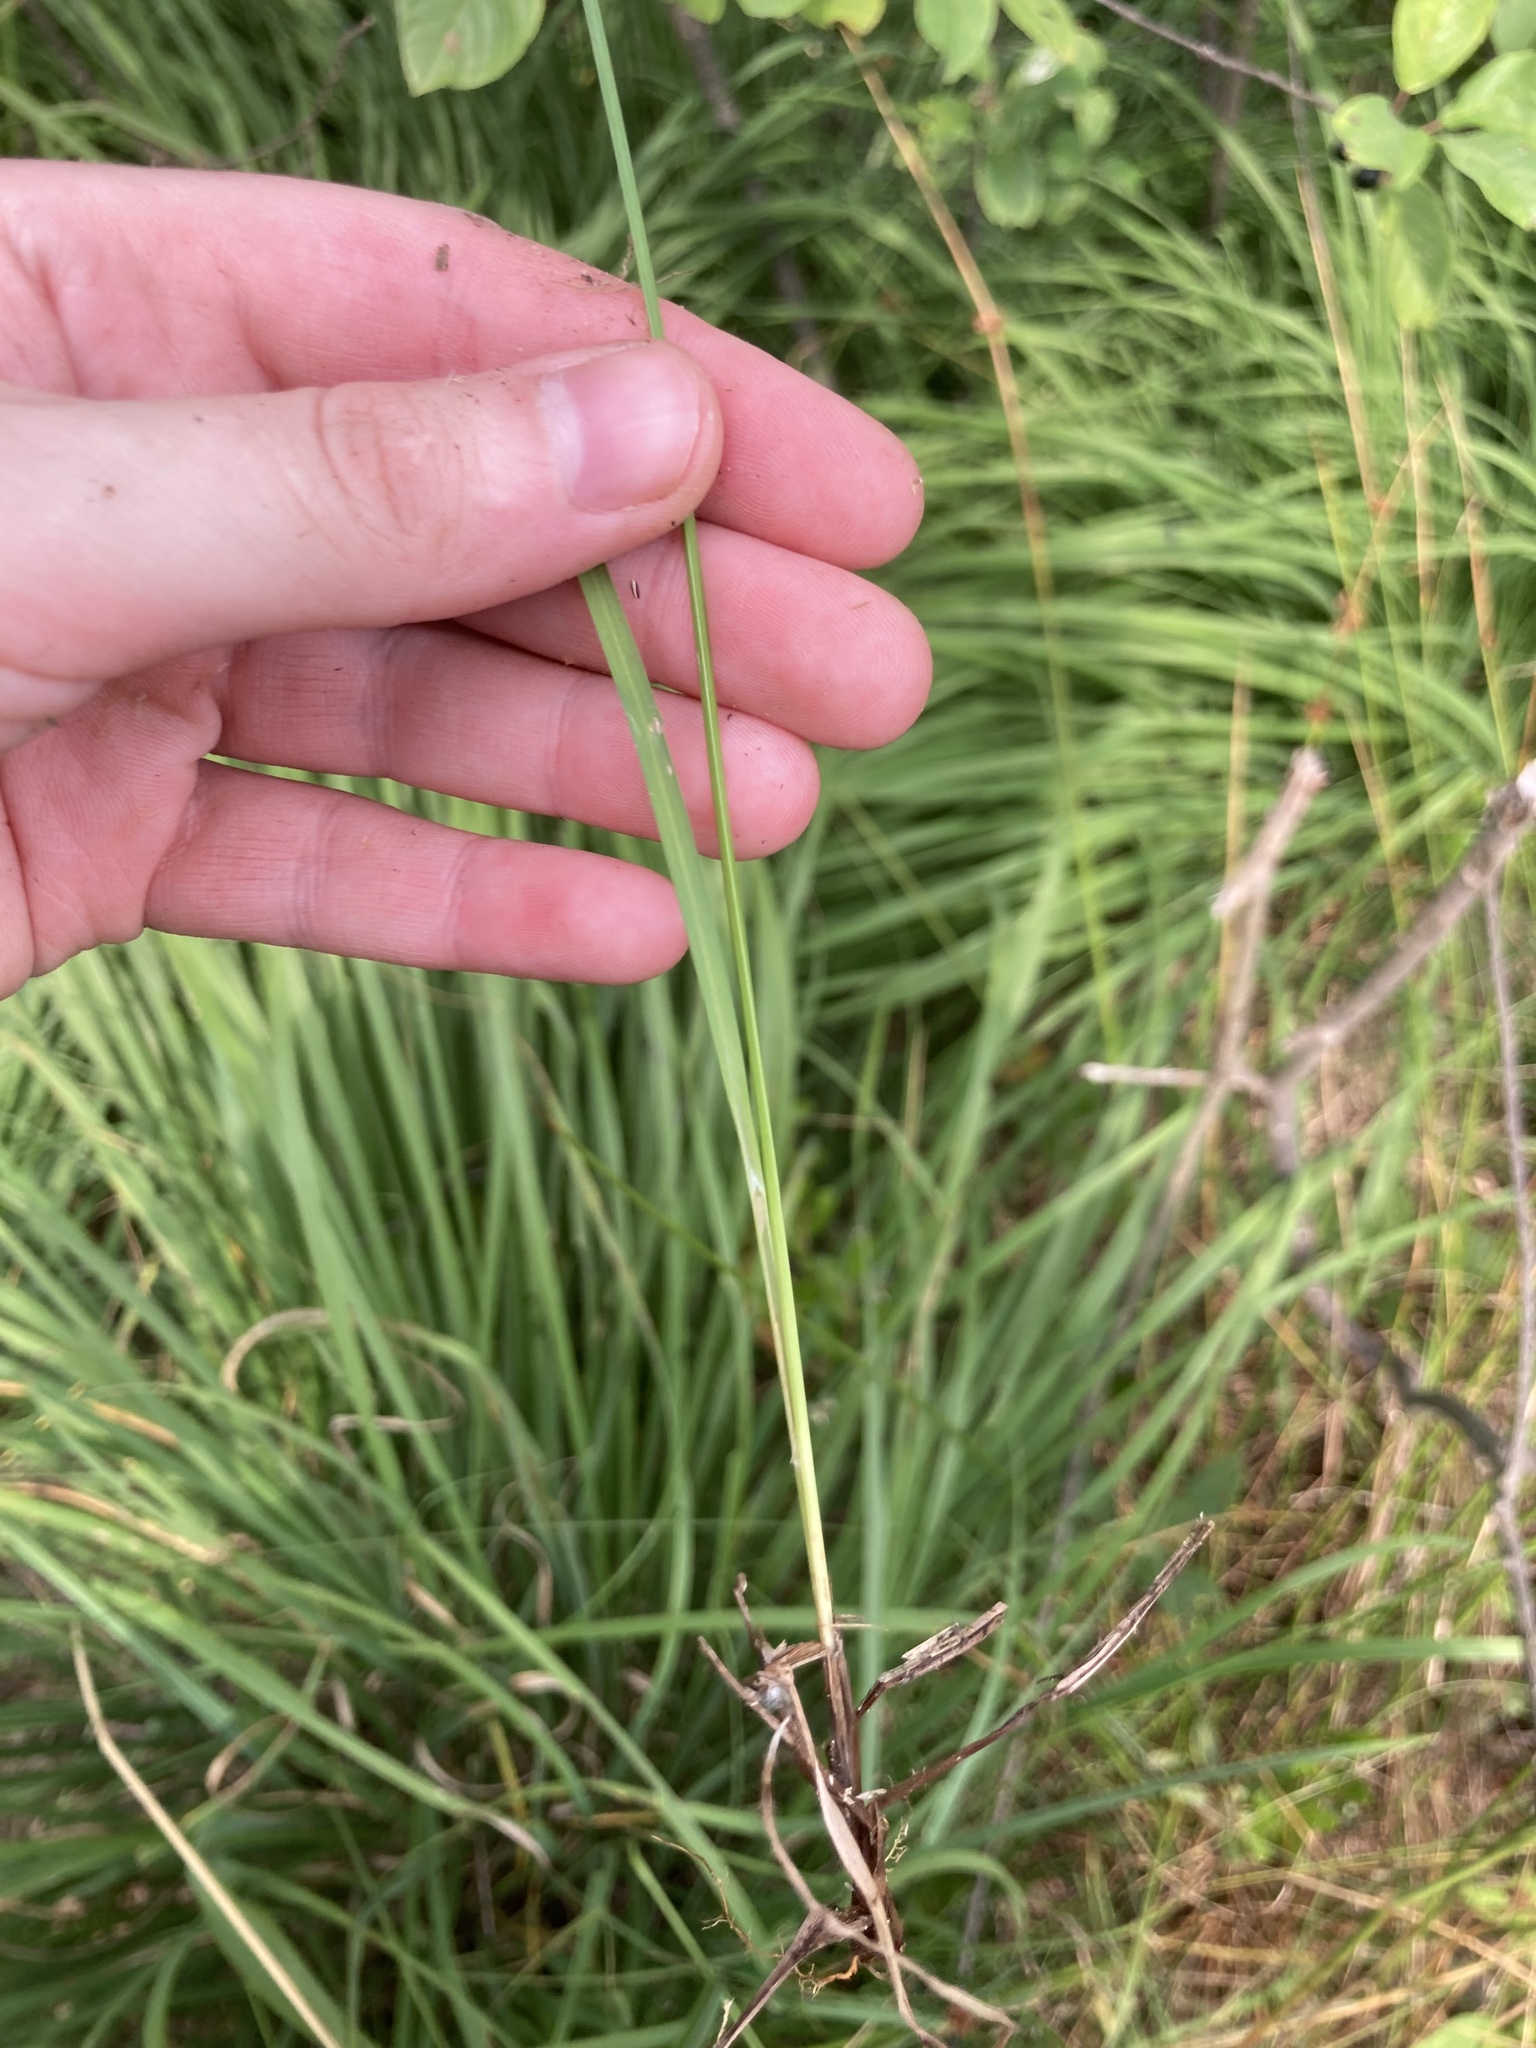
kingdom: Plantae
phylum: Tracheophyta
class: Liliopsida
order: Poales
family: Cyperaceae
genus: Carex
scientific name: Carex nigra
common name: Common sedge
